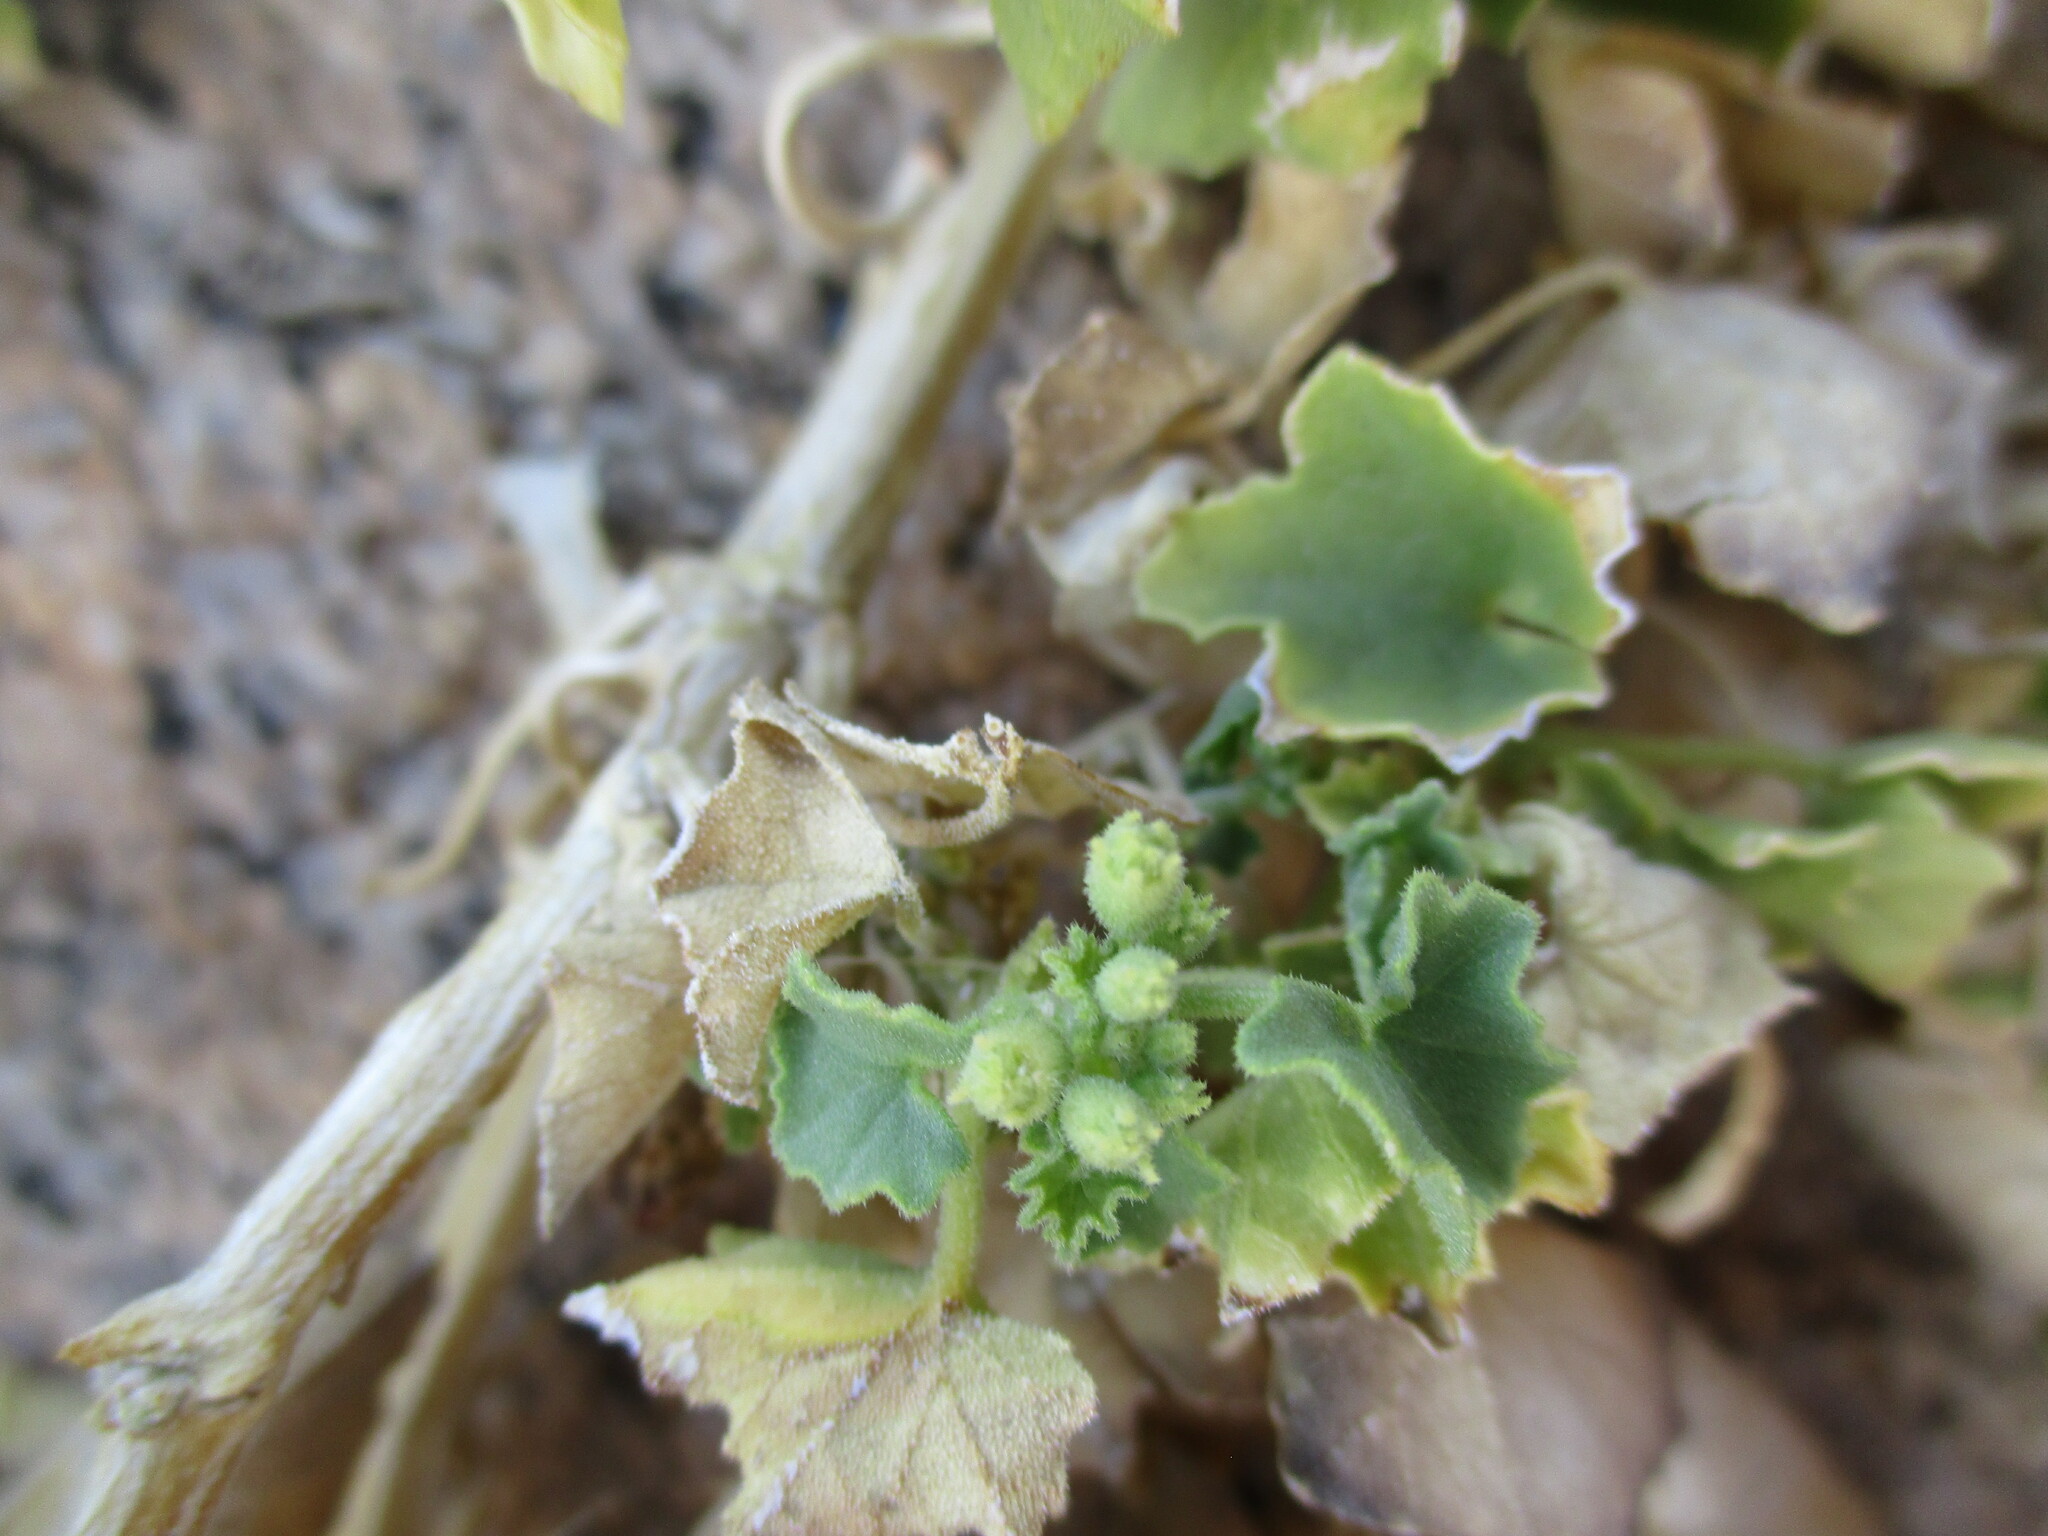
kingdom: Plantae
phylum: Tracheophyta
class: Magnoliopsida
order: Cucurbitales
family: Cucurbitaceae
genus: Cucumis
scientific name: Cucumis asper
